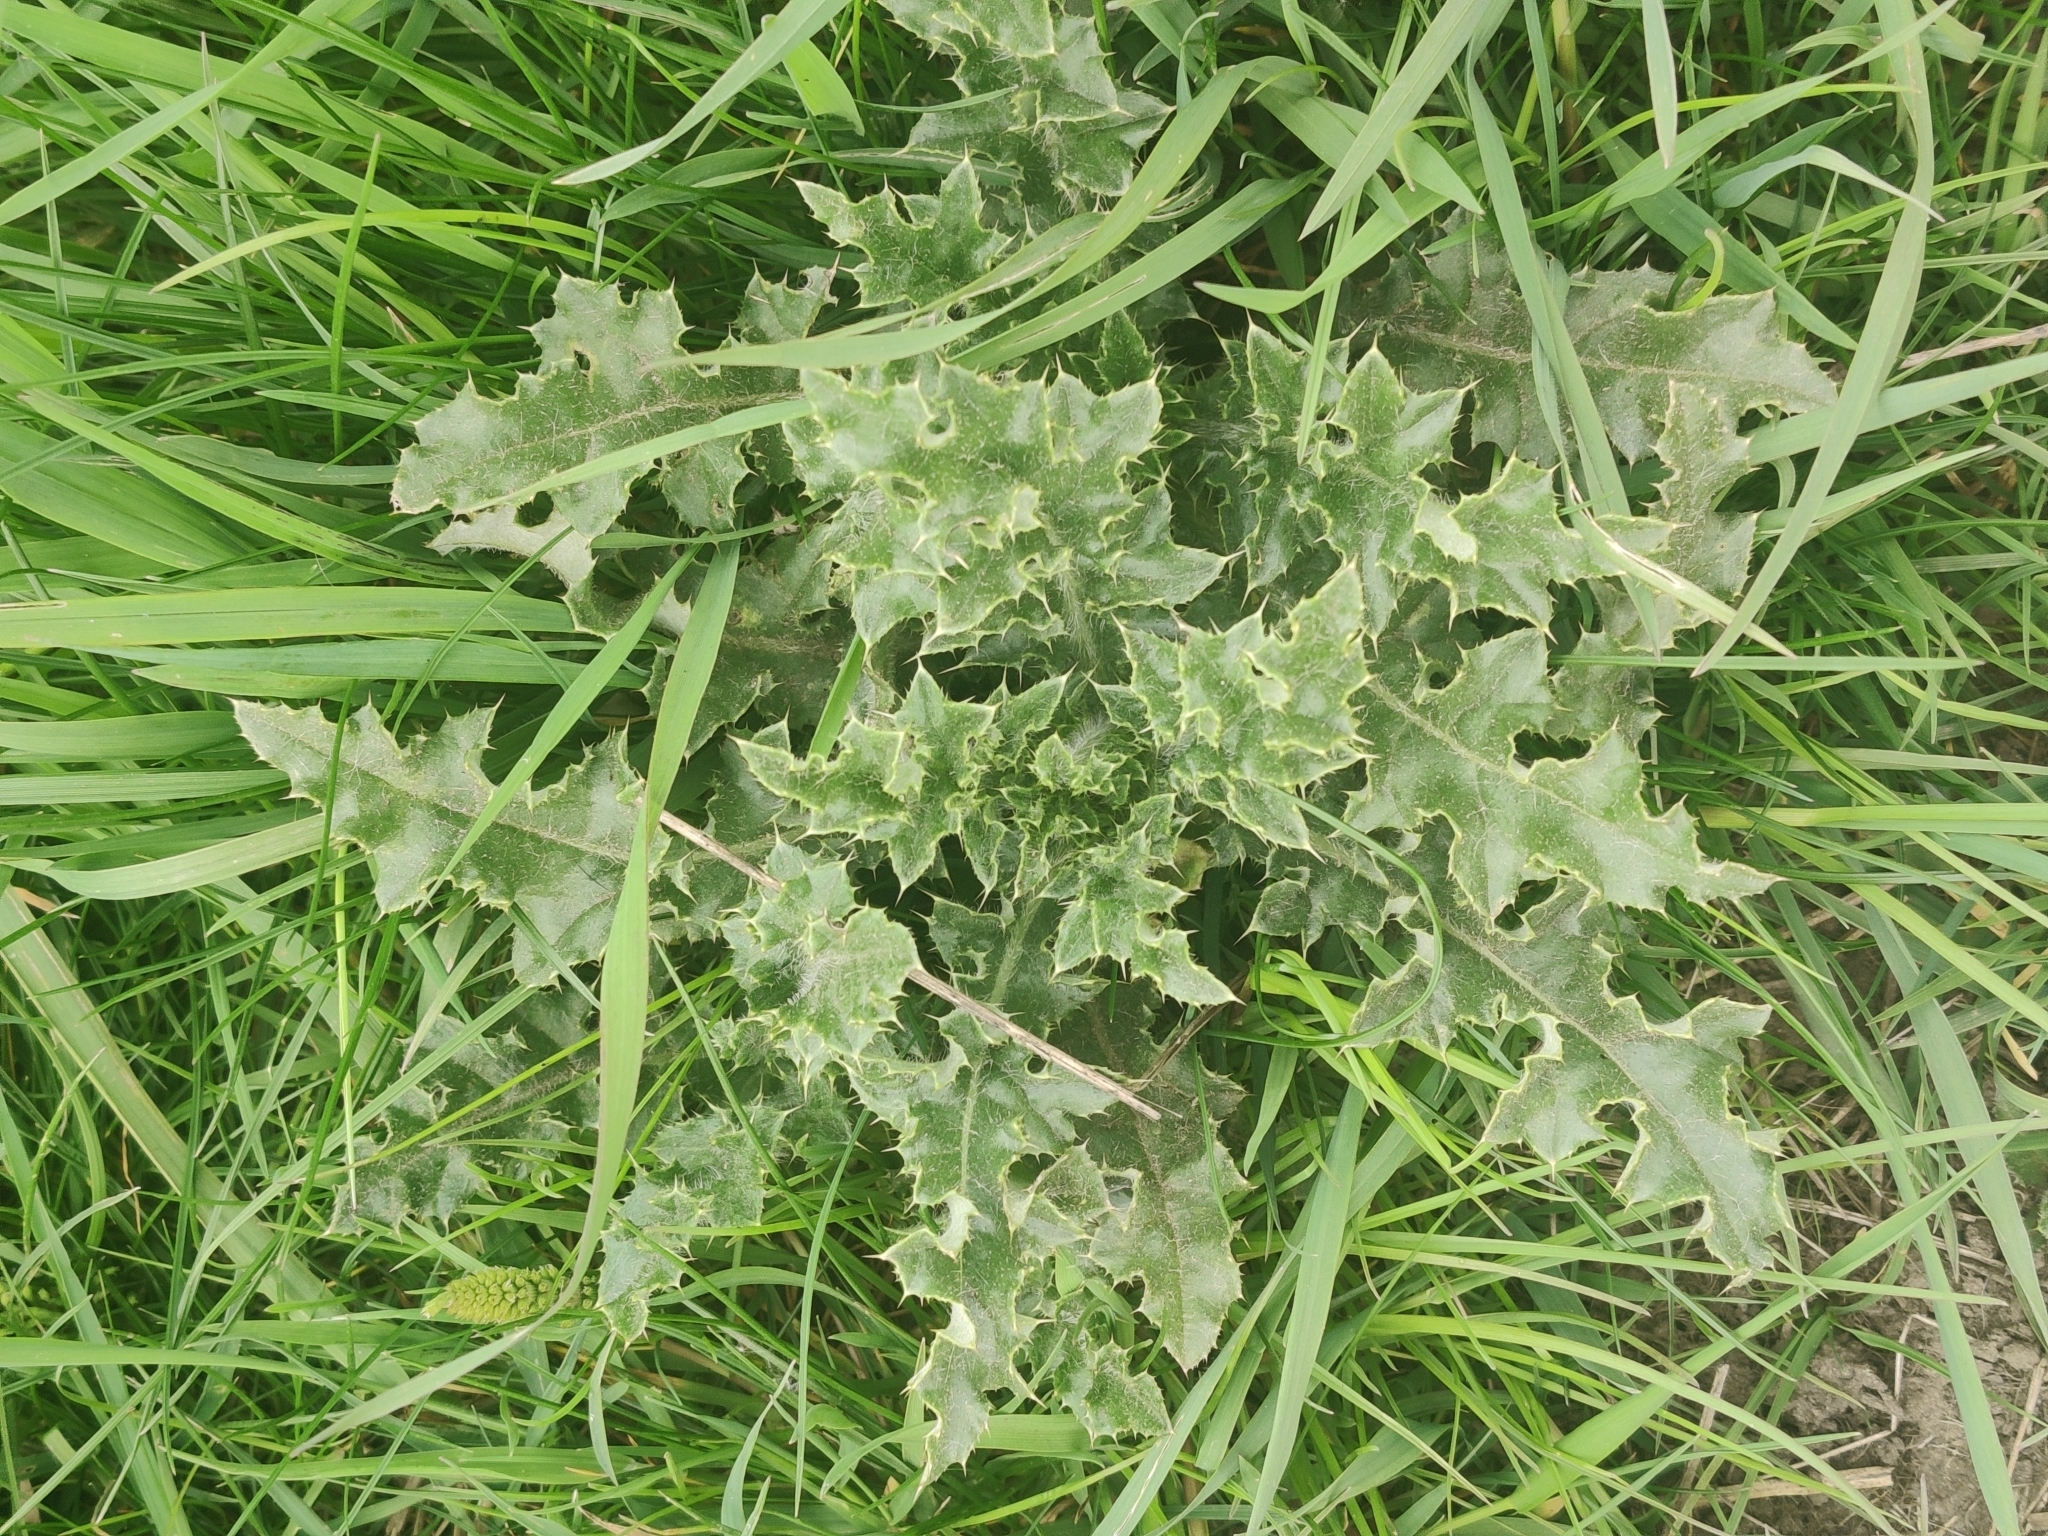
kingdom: Plantae
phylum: Tracheophyta
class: Magnoliopsida
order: Asterales
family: Asteraceae
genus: Cirsium
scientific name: Cirsium arvense
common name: Creeping thistle
